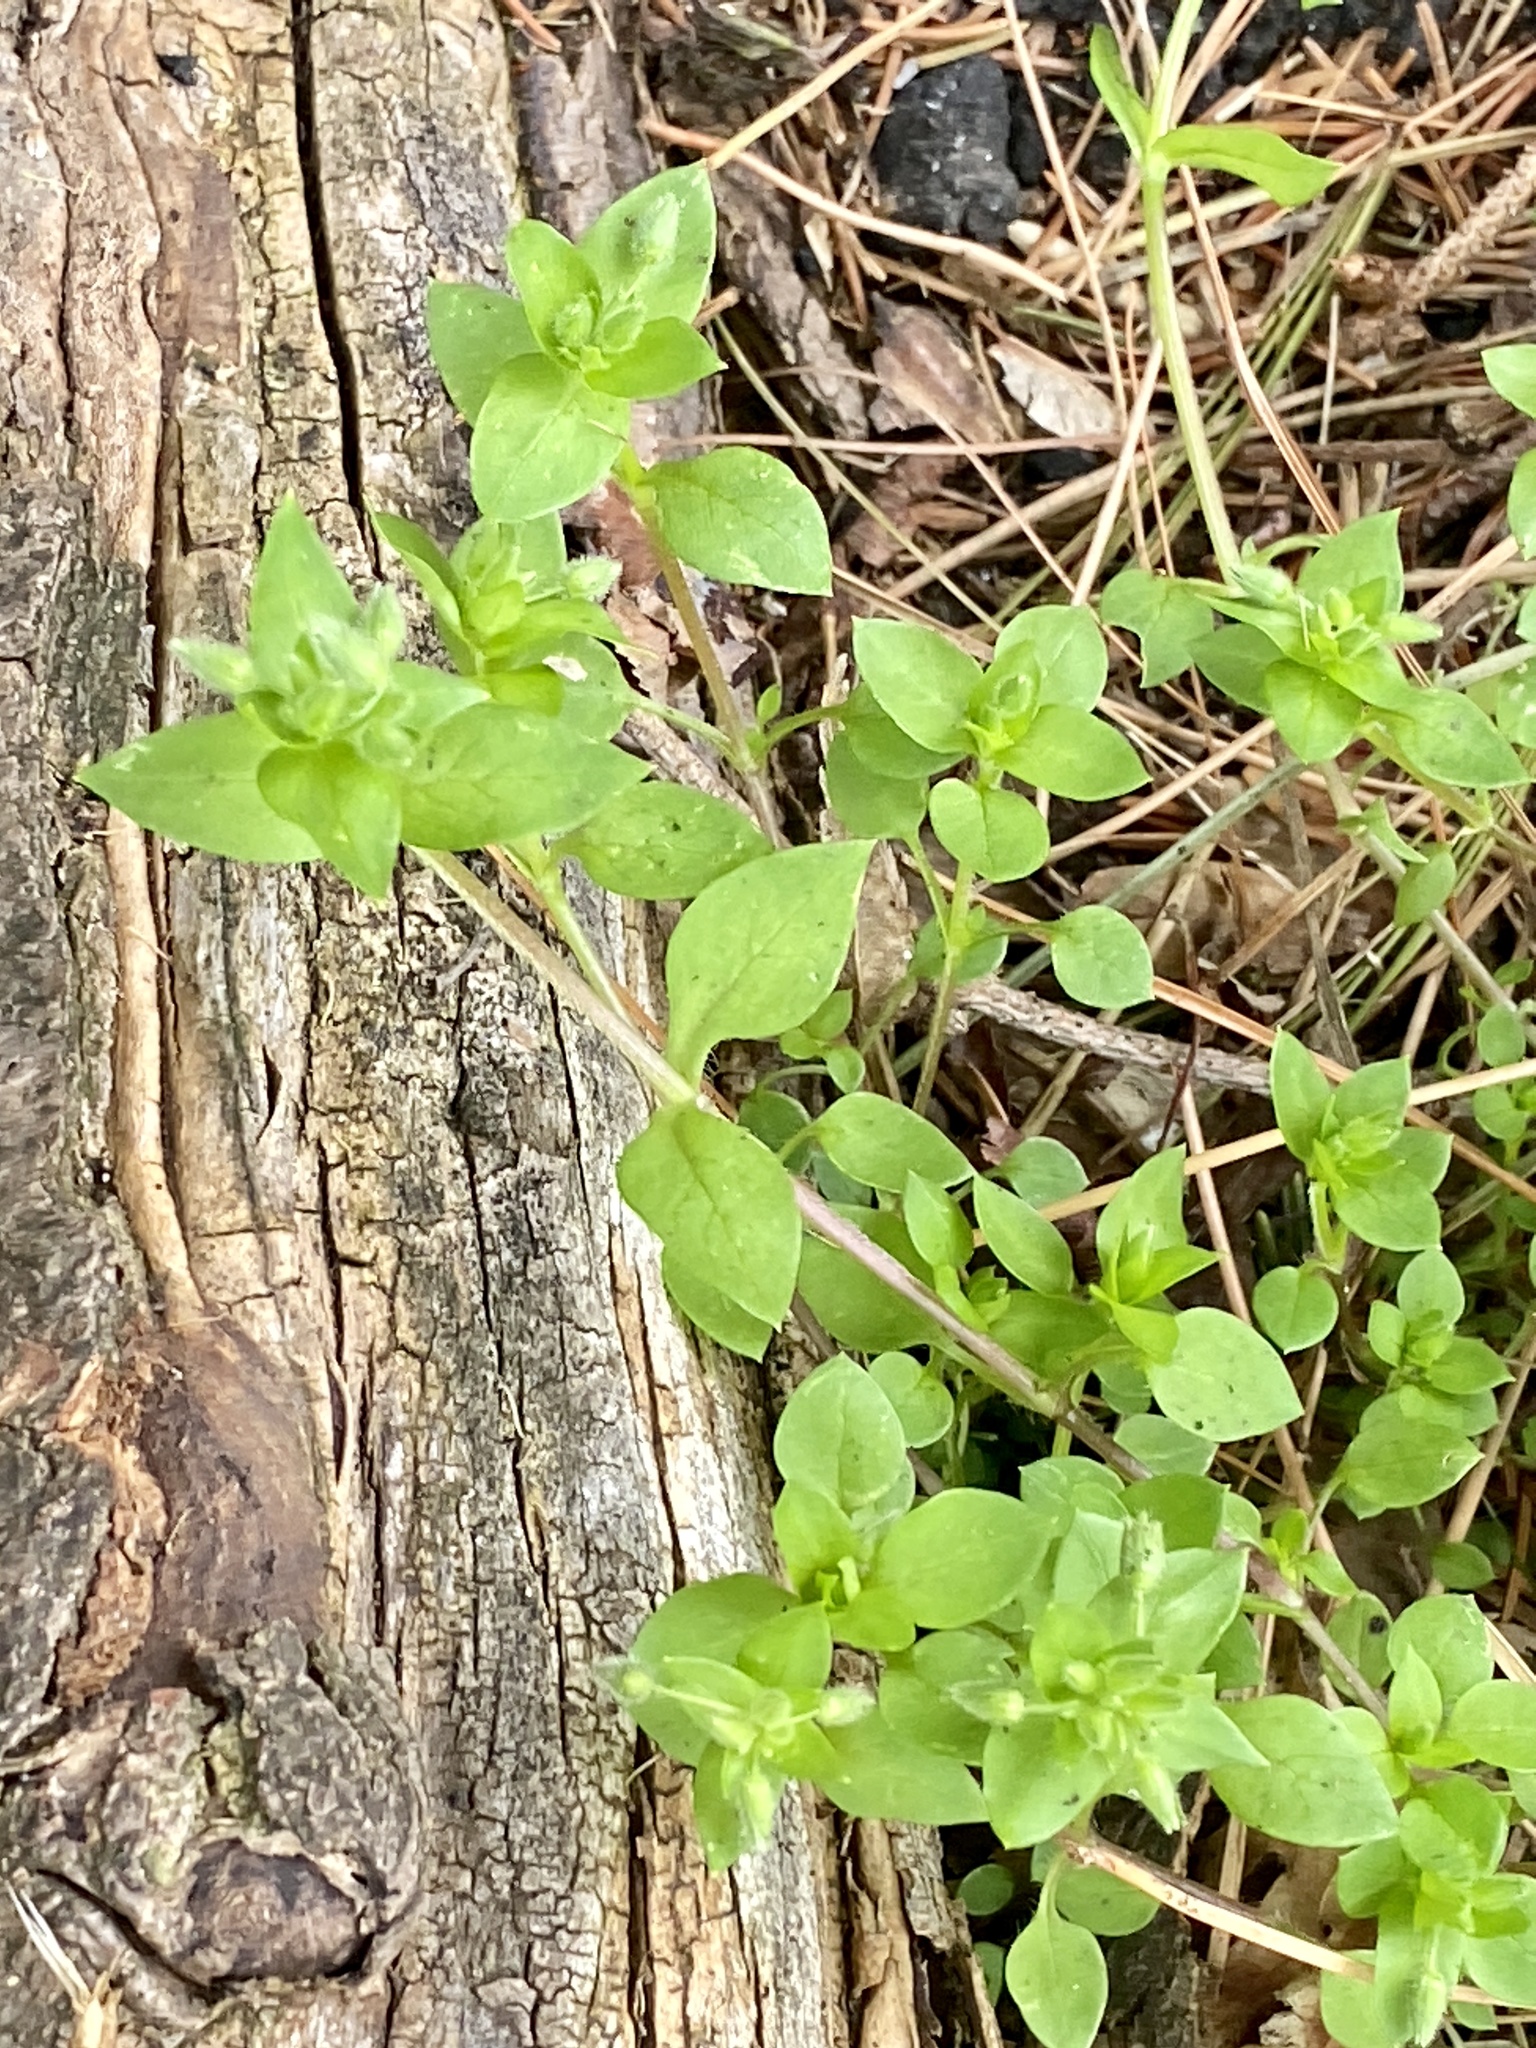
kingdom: Plantae
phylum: Tracheophyta
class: Magnoliopsida
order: Caryophyllales
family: Caryophyllaceae
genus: Stellaria
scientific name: Stellaria media
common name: Common chickweed
